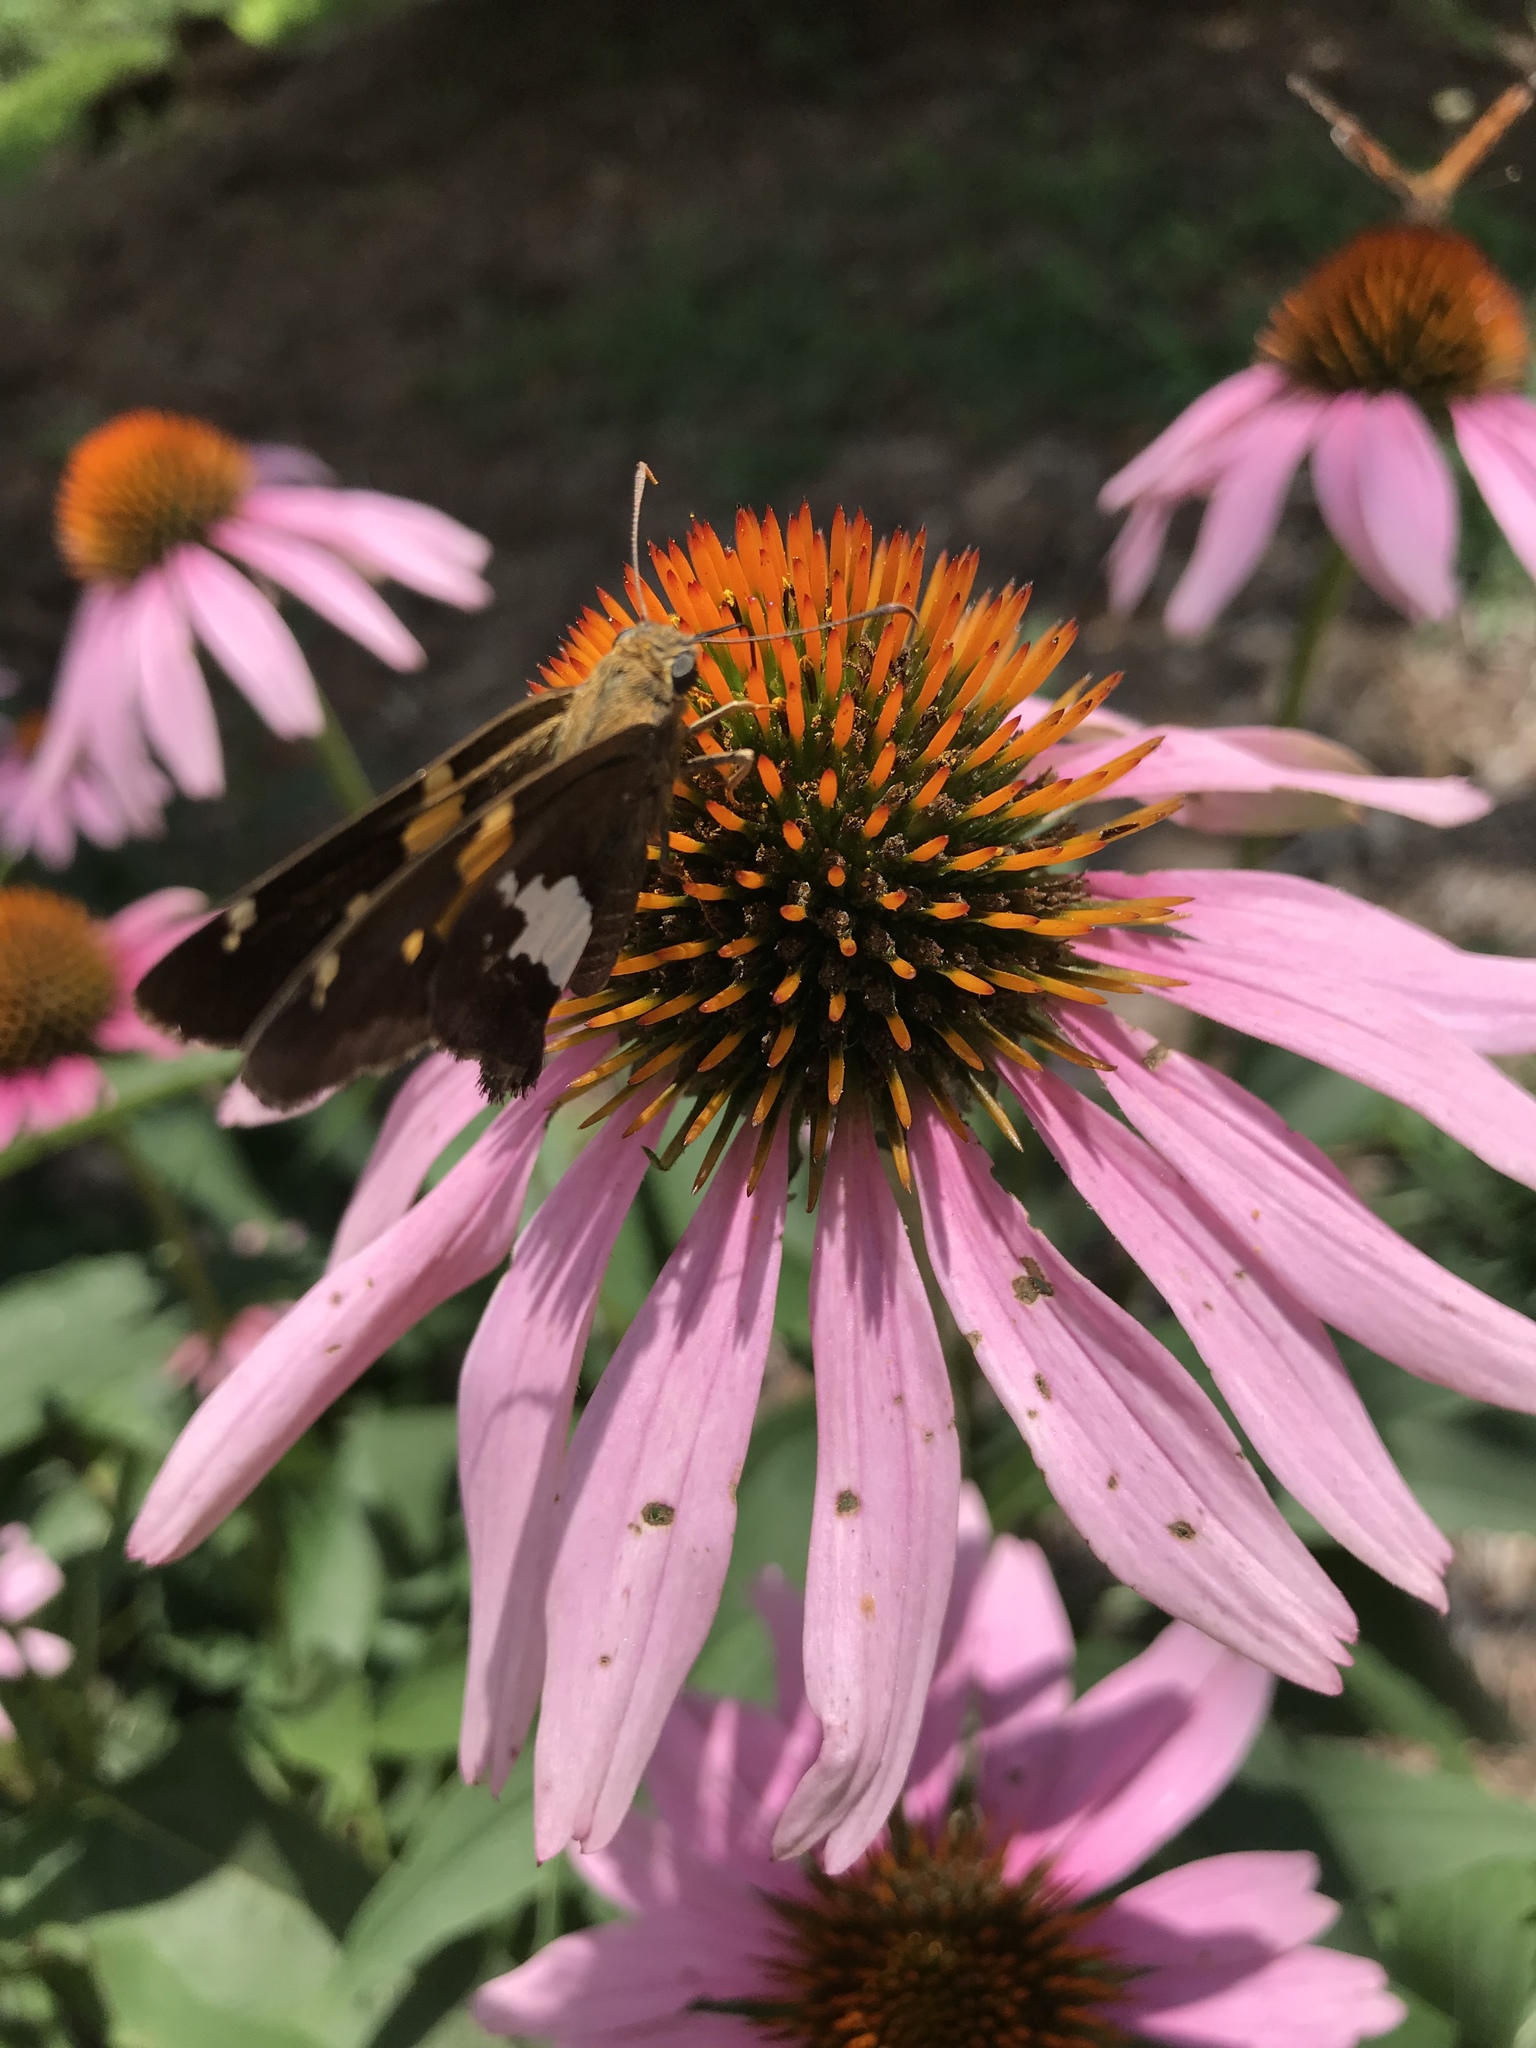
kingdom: Animalia
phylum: Arthropoda
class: Insecta
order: Lepidoptera
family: Hesperiidae
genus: Epargyreus
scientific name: Epargyreus clarus
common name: Silver-spotted skipper
